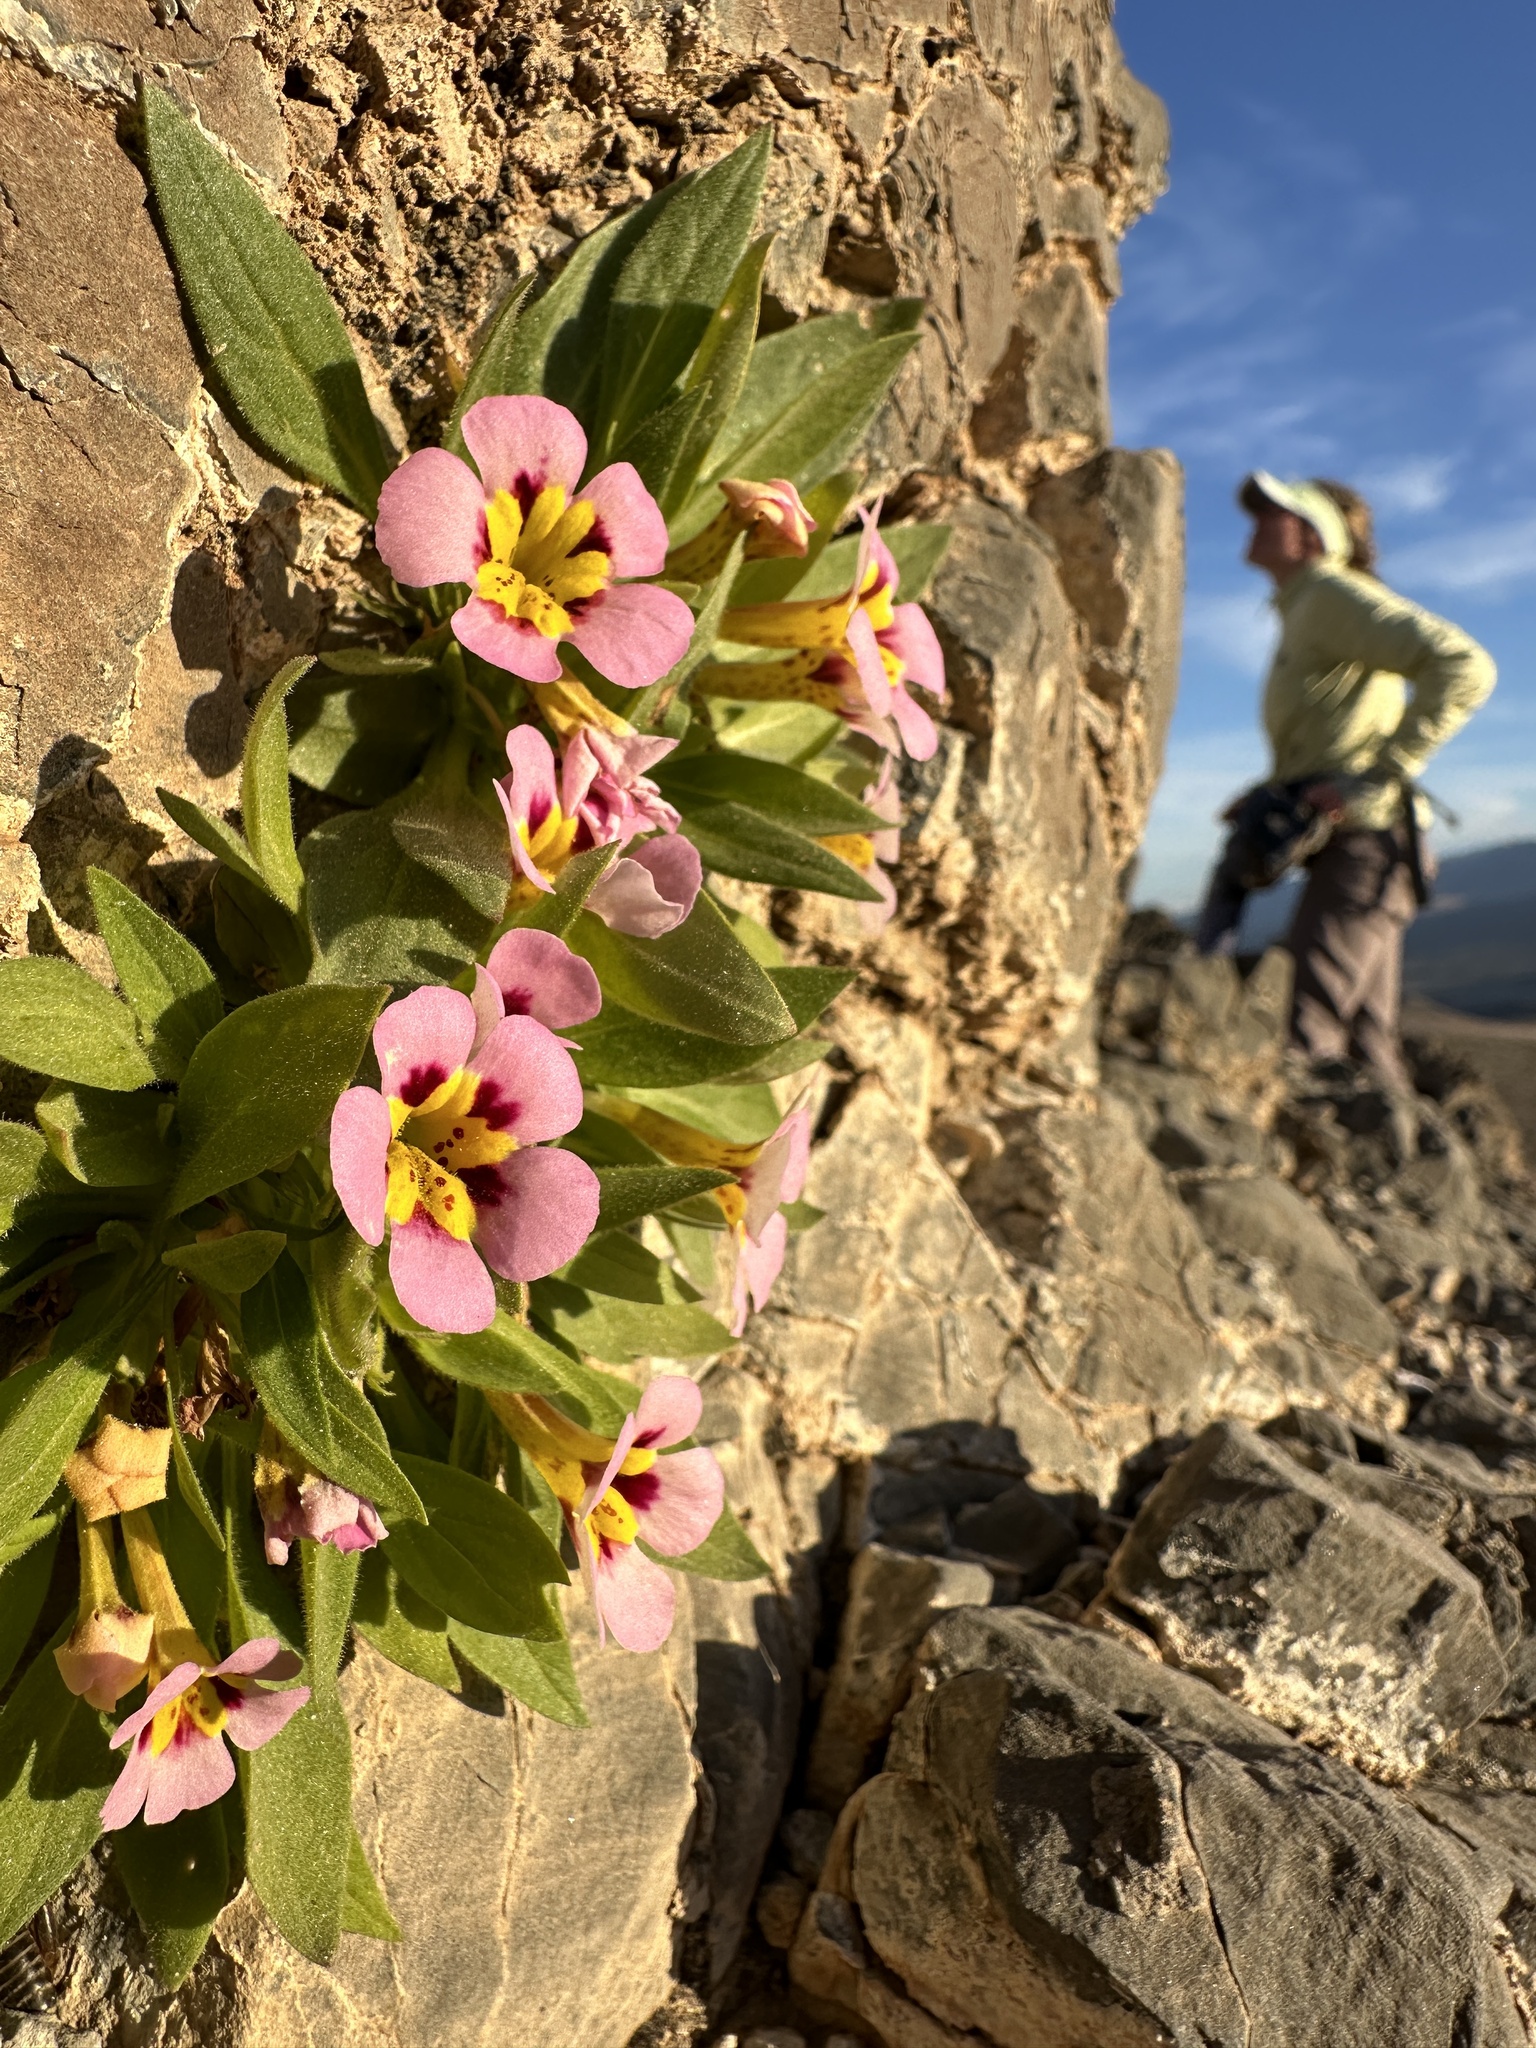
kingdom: Plantae
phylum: Tracheophyta
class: Magnoliopsida
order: Lamiales
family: Phrymaceae
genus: Diplacus
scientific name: Diplacus rupicola
